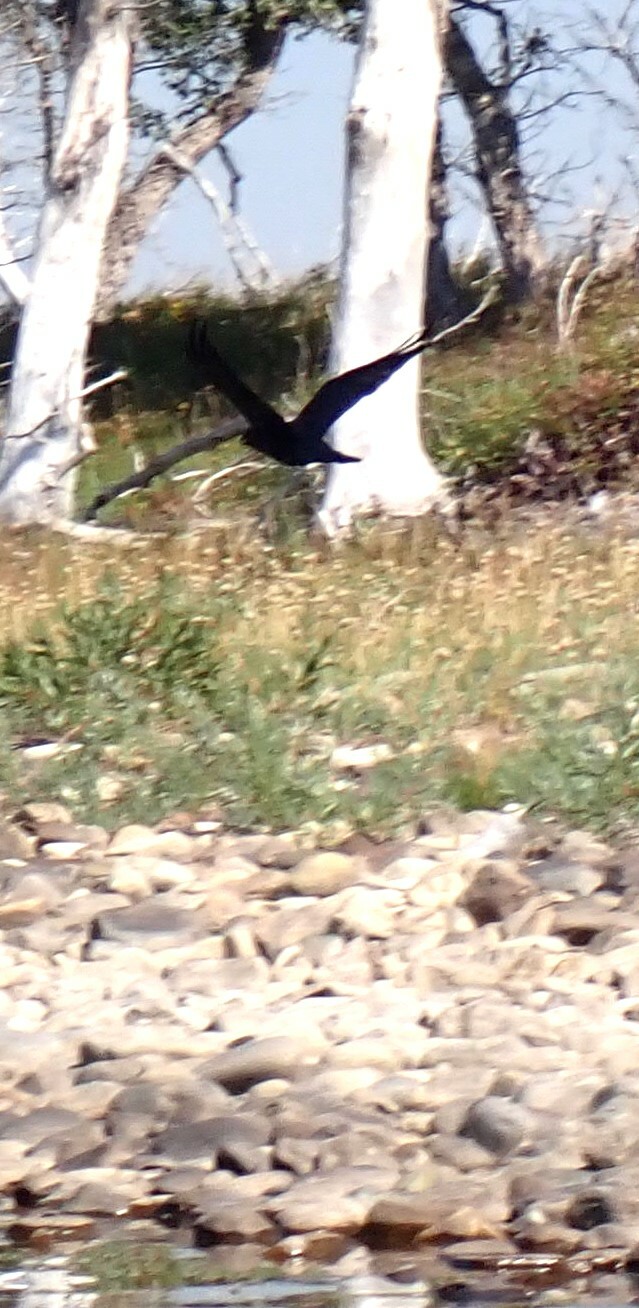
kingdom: Animalia
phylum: Chordata
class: Aves
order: Passeriformes
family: Corvidae
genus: Corvus
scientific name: Corvus corax
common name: Common raven
